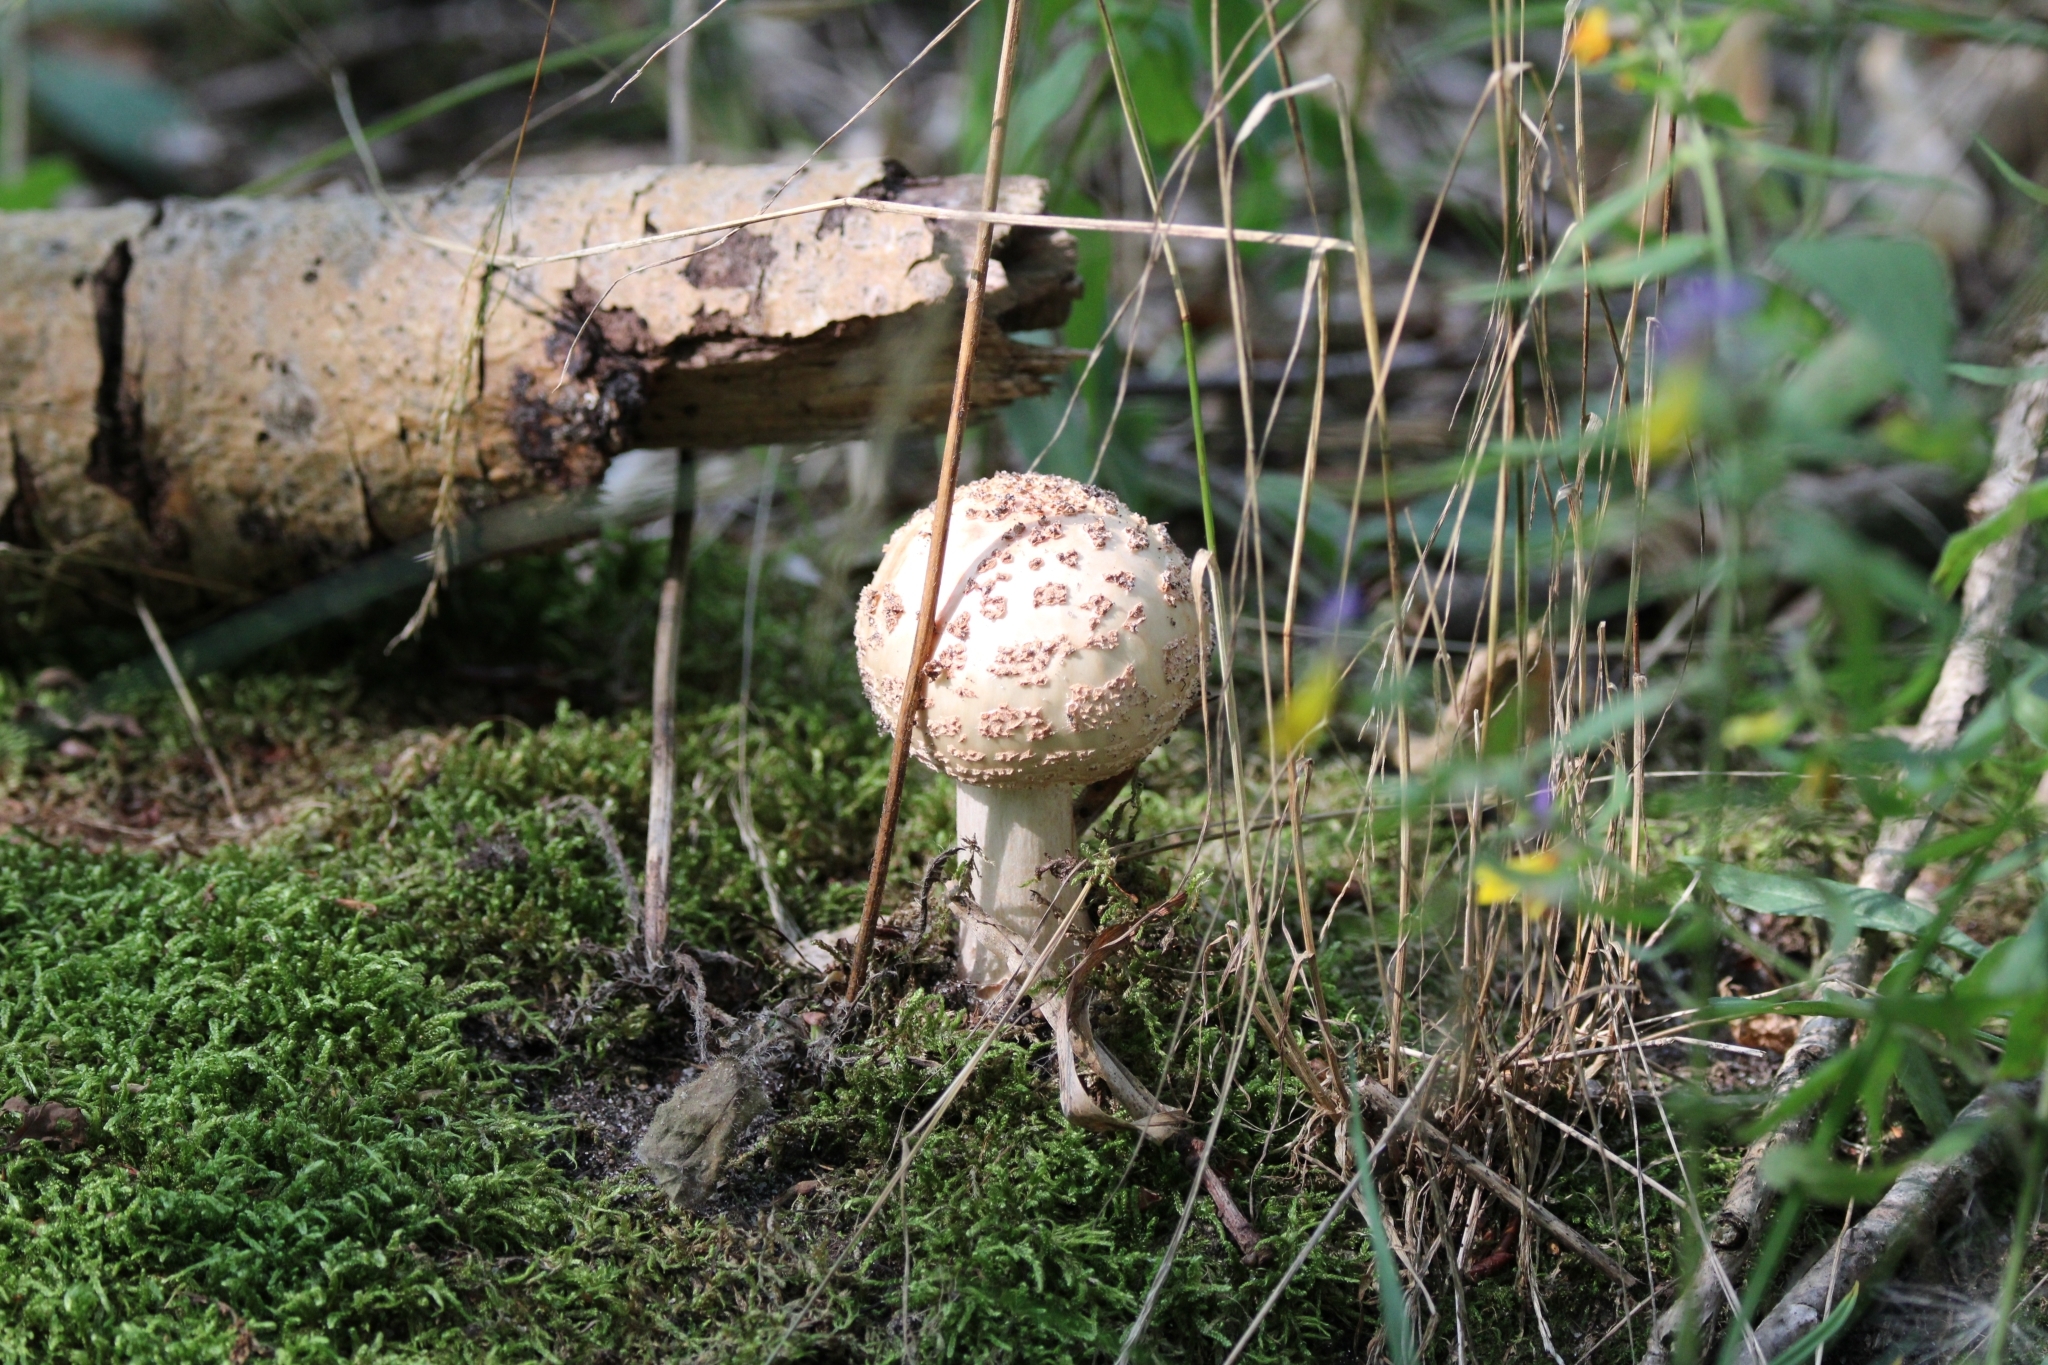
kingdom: Fungi
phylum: Basidiomycota
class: Agaricomycetes
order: Agaricales
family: Amanitaceae
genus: Amanita
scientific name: Amanita rubescens
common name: Blusher
